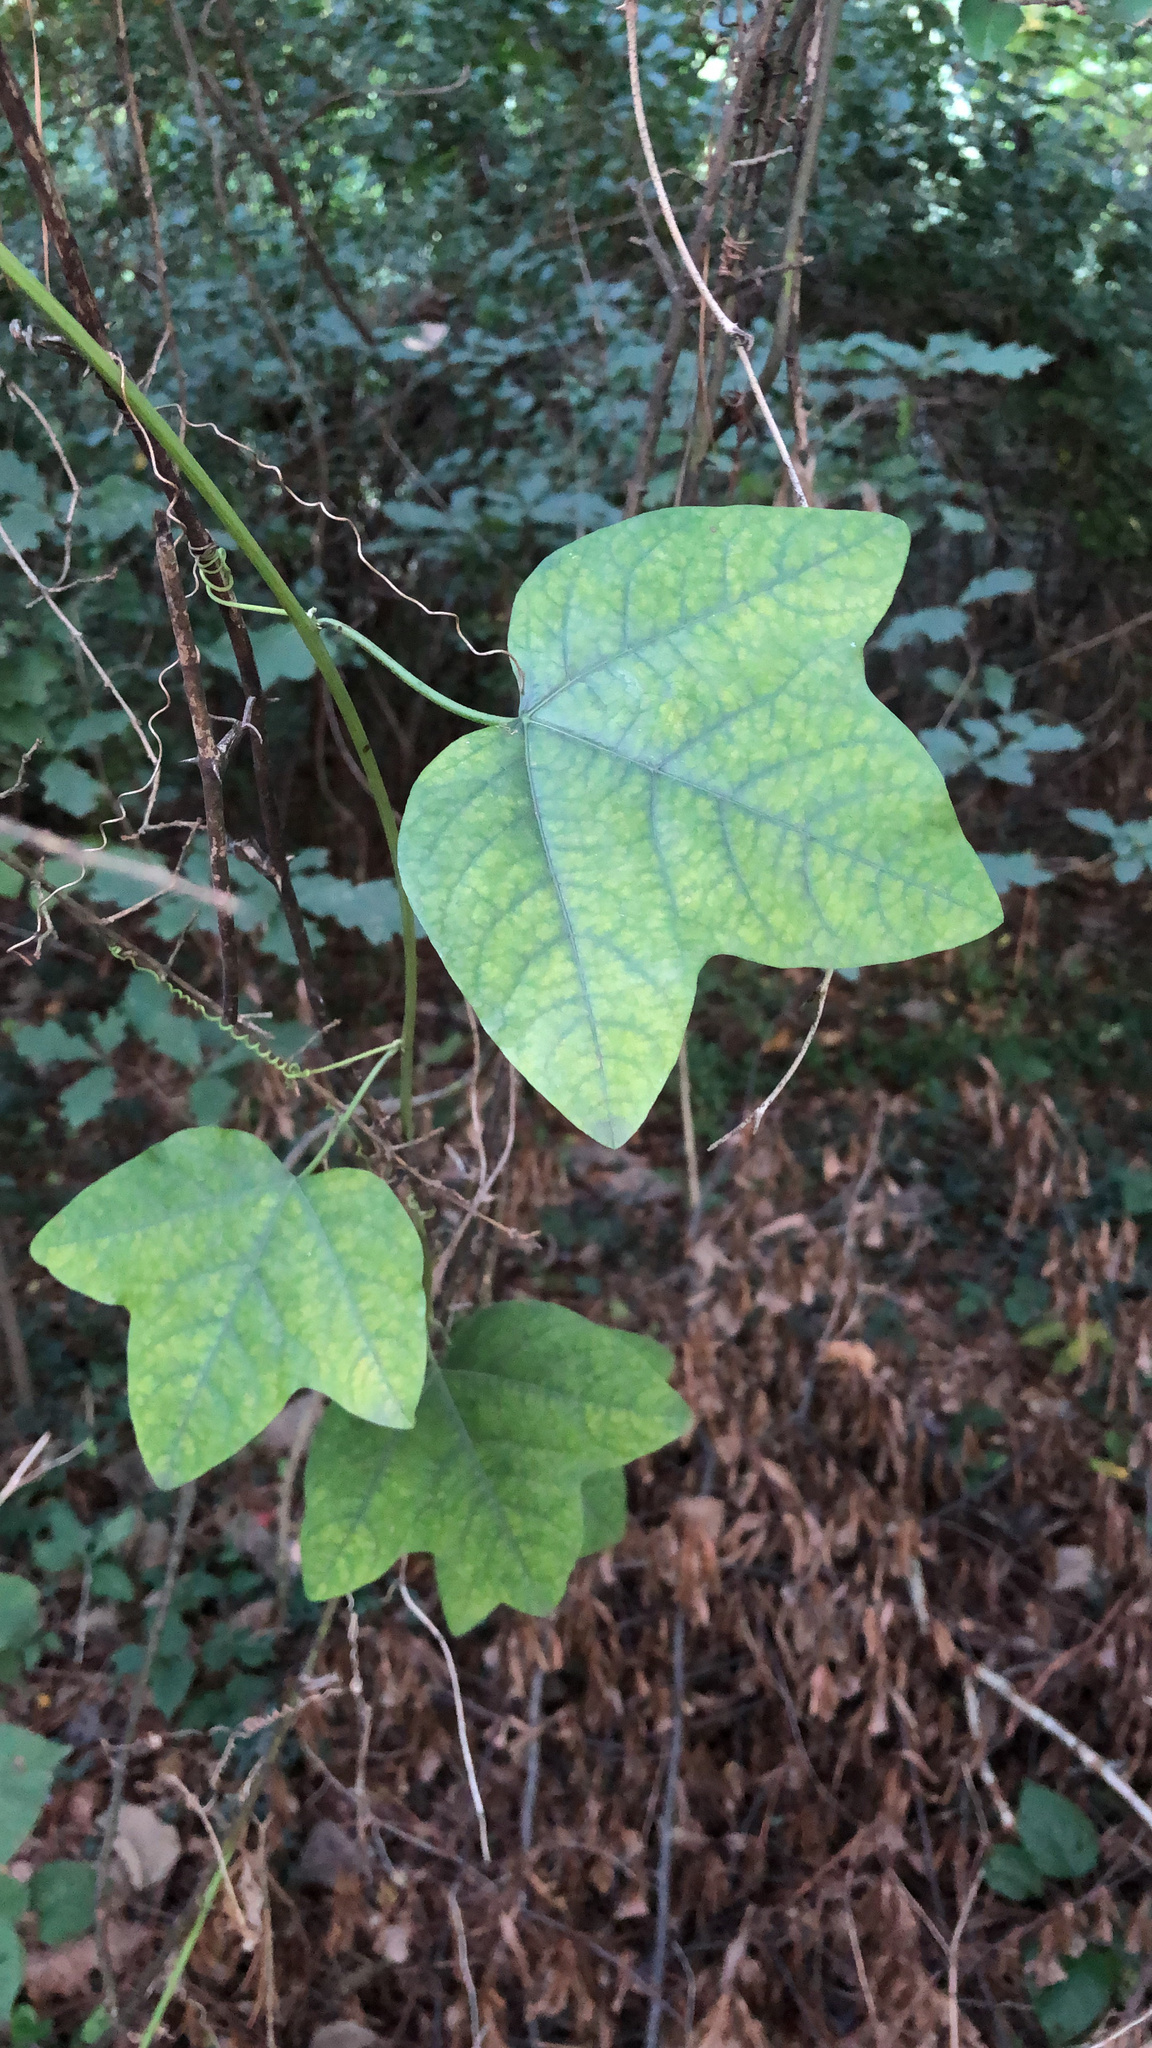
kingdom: Plantae
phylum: Tracheophyta
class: Magnoliopsida
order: Malpighiales
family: Passifloraceae
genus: Passiflora
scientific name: Passiflora lutea
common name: Yellow passionflower
